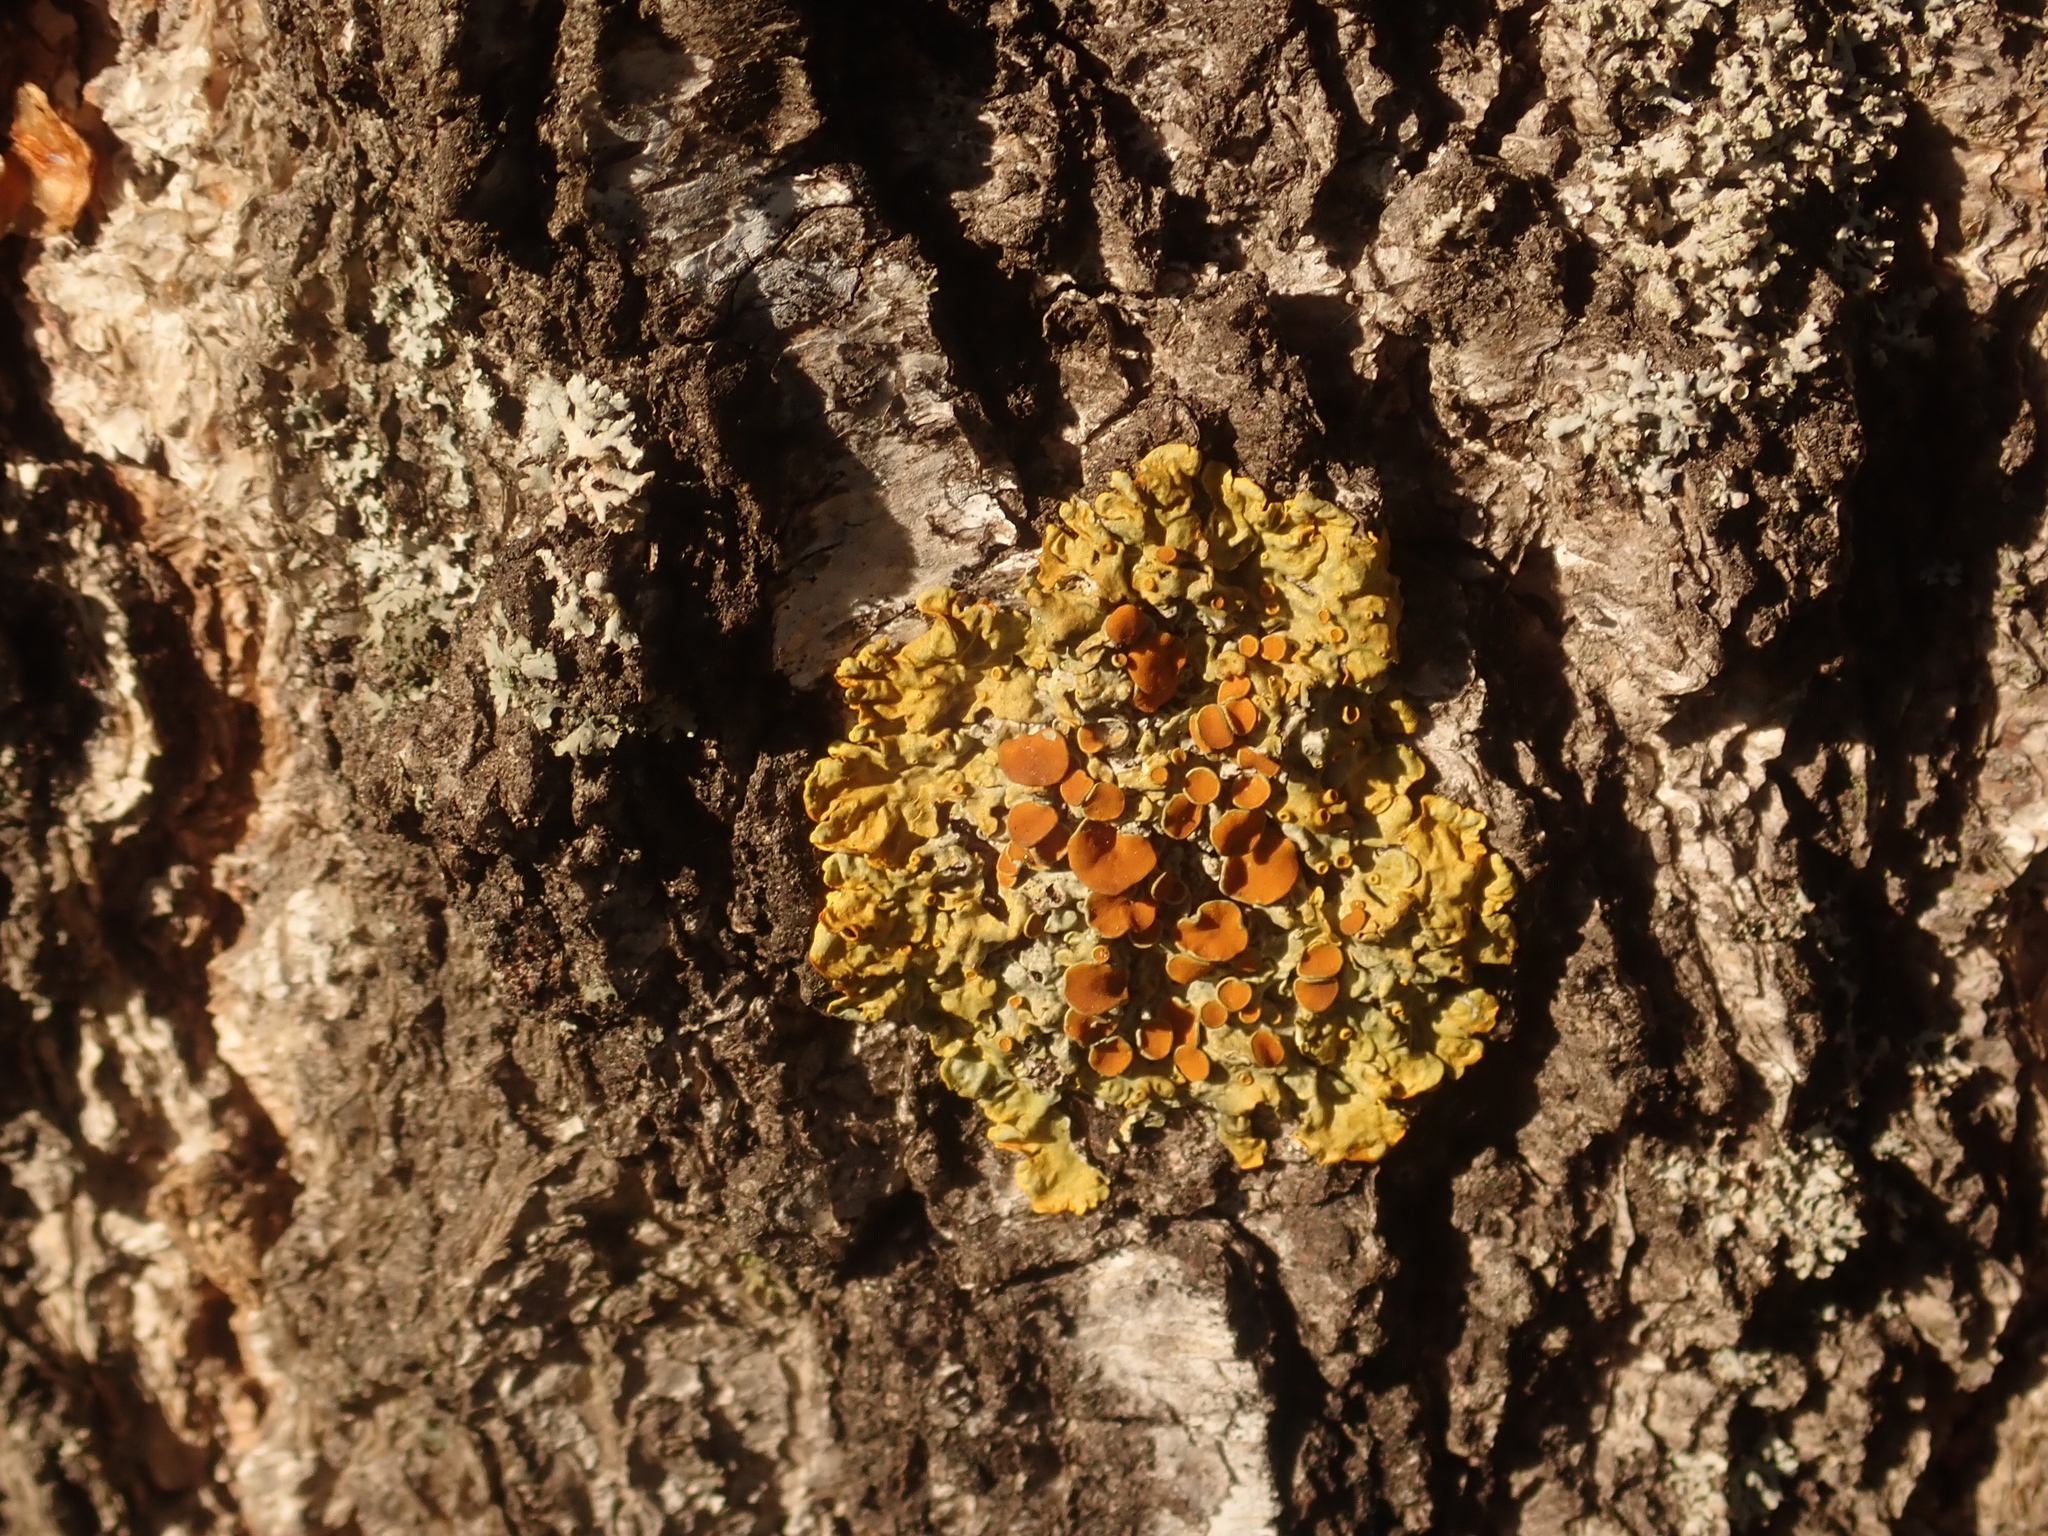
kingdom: Fungi
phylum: Ascomycota
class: Lecanoromycetes
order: Teloschistales
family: Teloschistaceae
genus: Xanthoria
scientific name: Xanthoria parietina
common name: Common orange lichen
